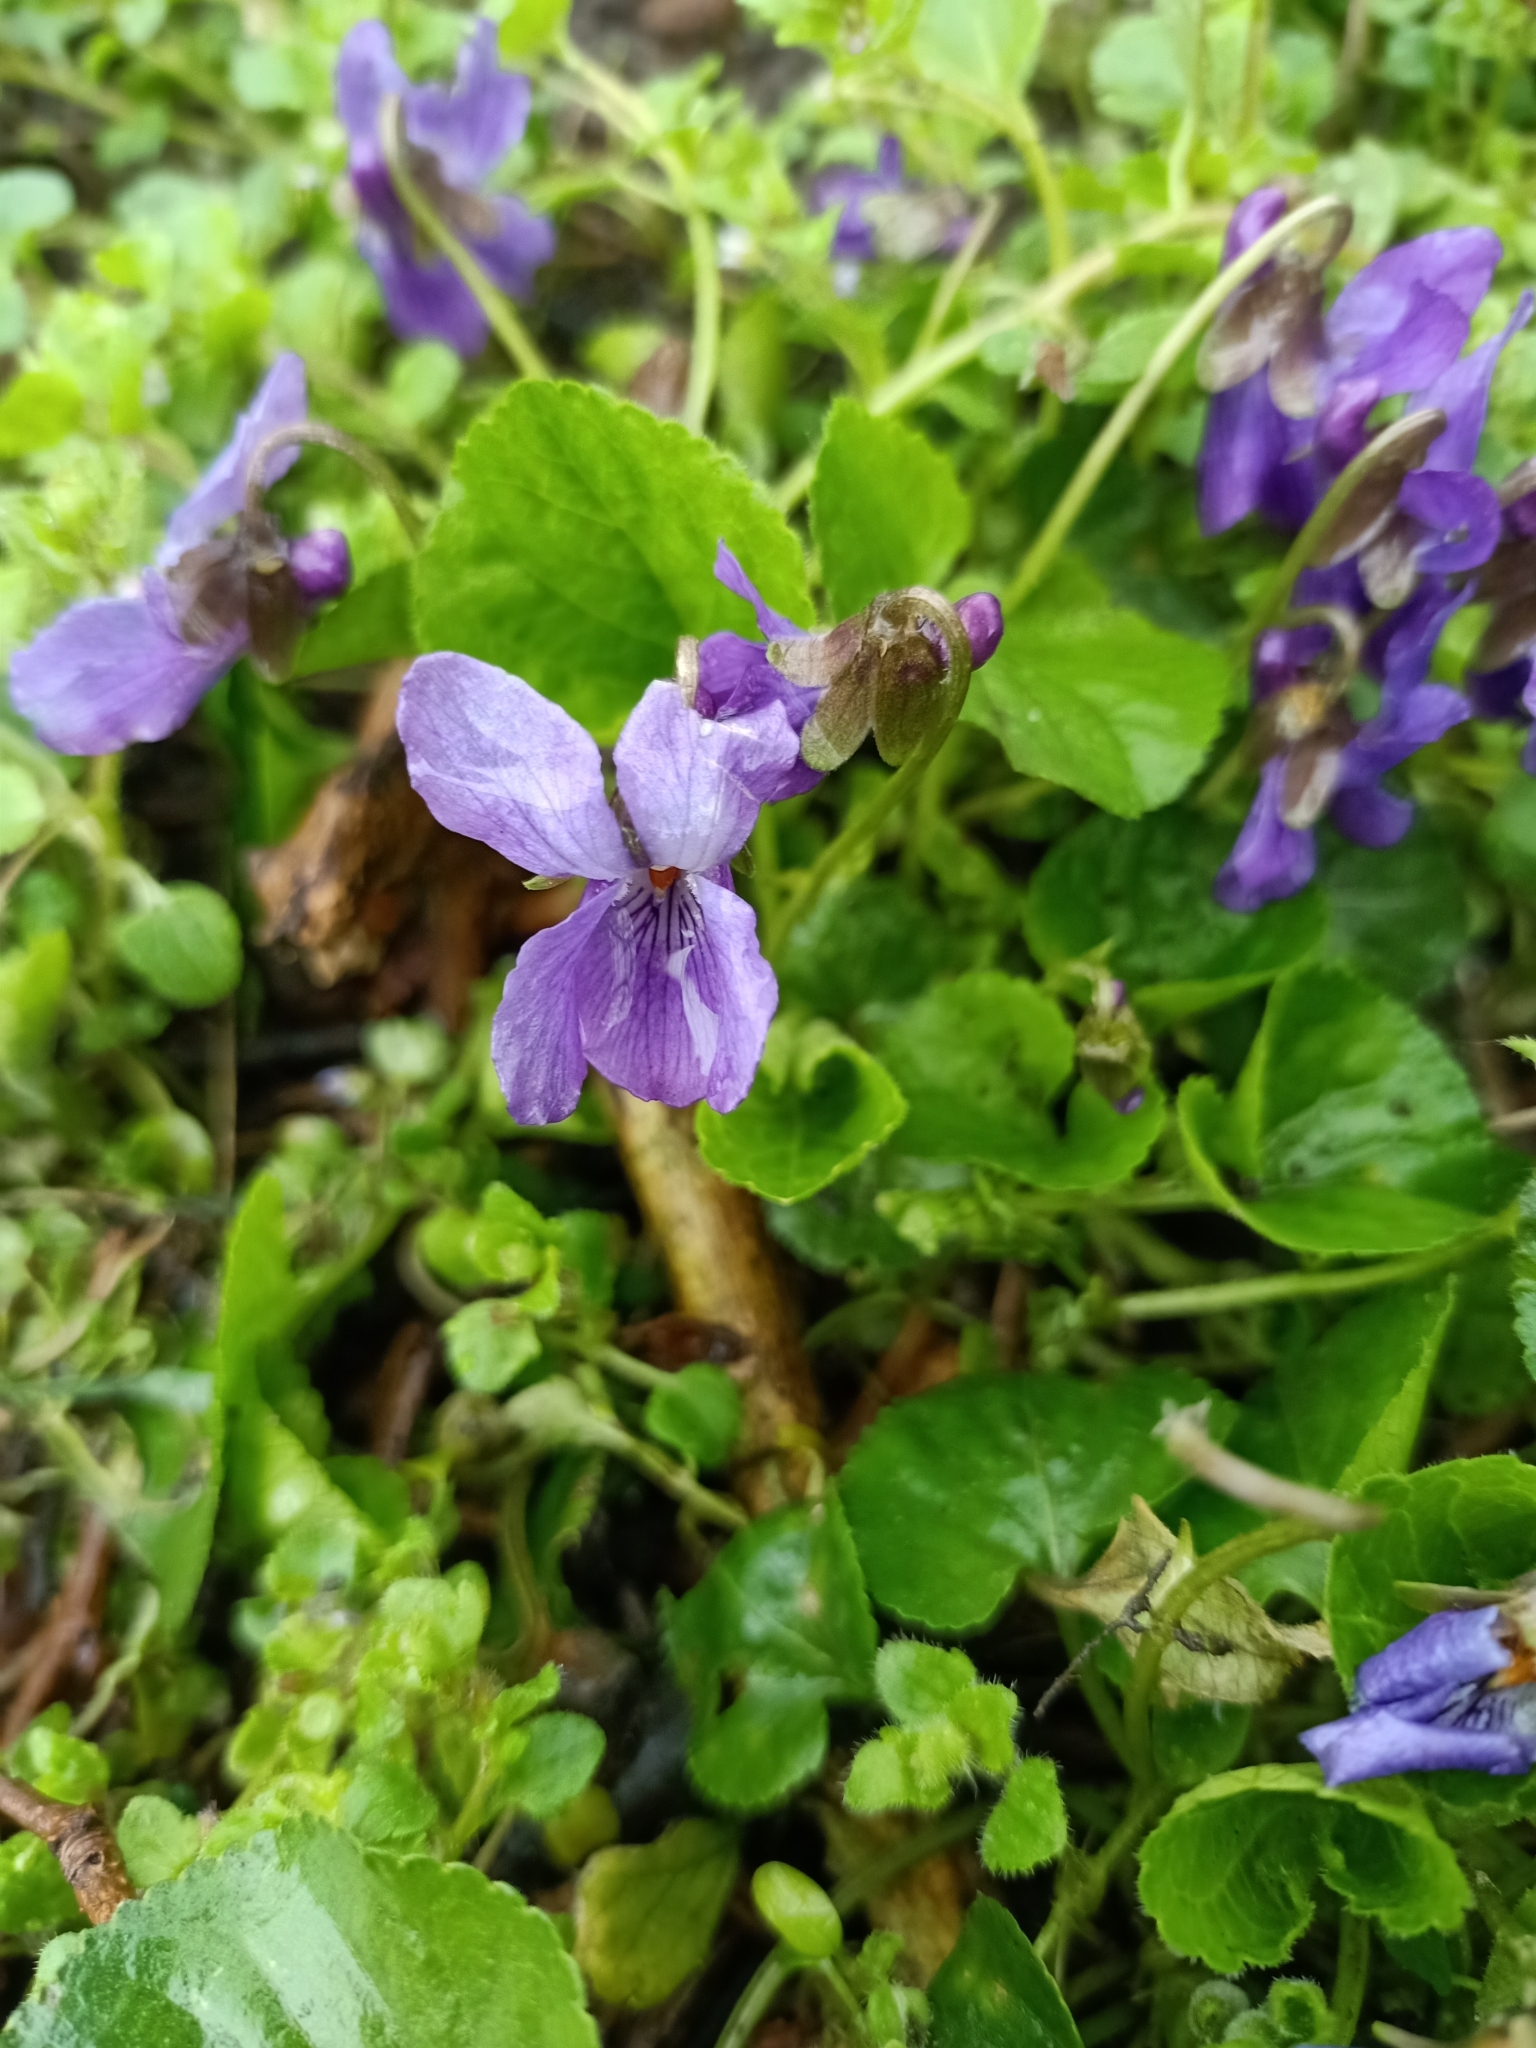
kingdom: Plantae
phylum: Tracheophyta
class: Magnoliopsida
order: Malpighiales
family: Violaceae
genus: Viola
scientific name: Viola odorata
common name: Sweet violet
